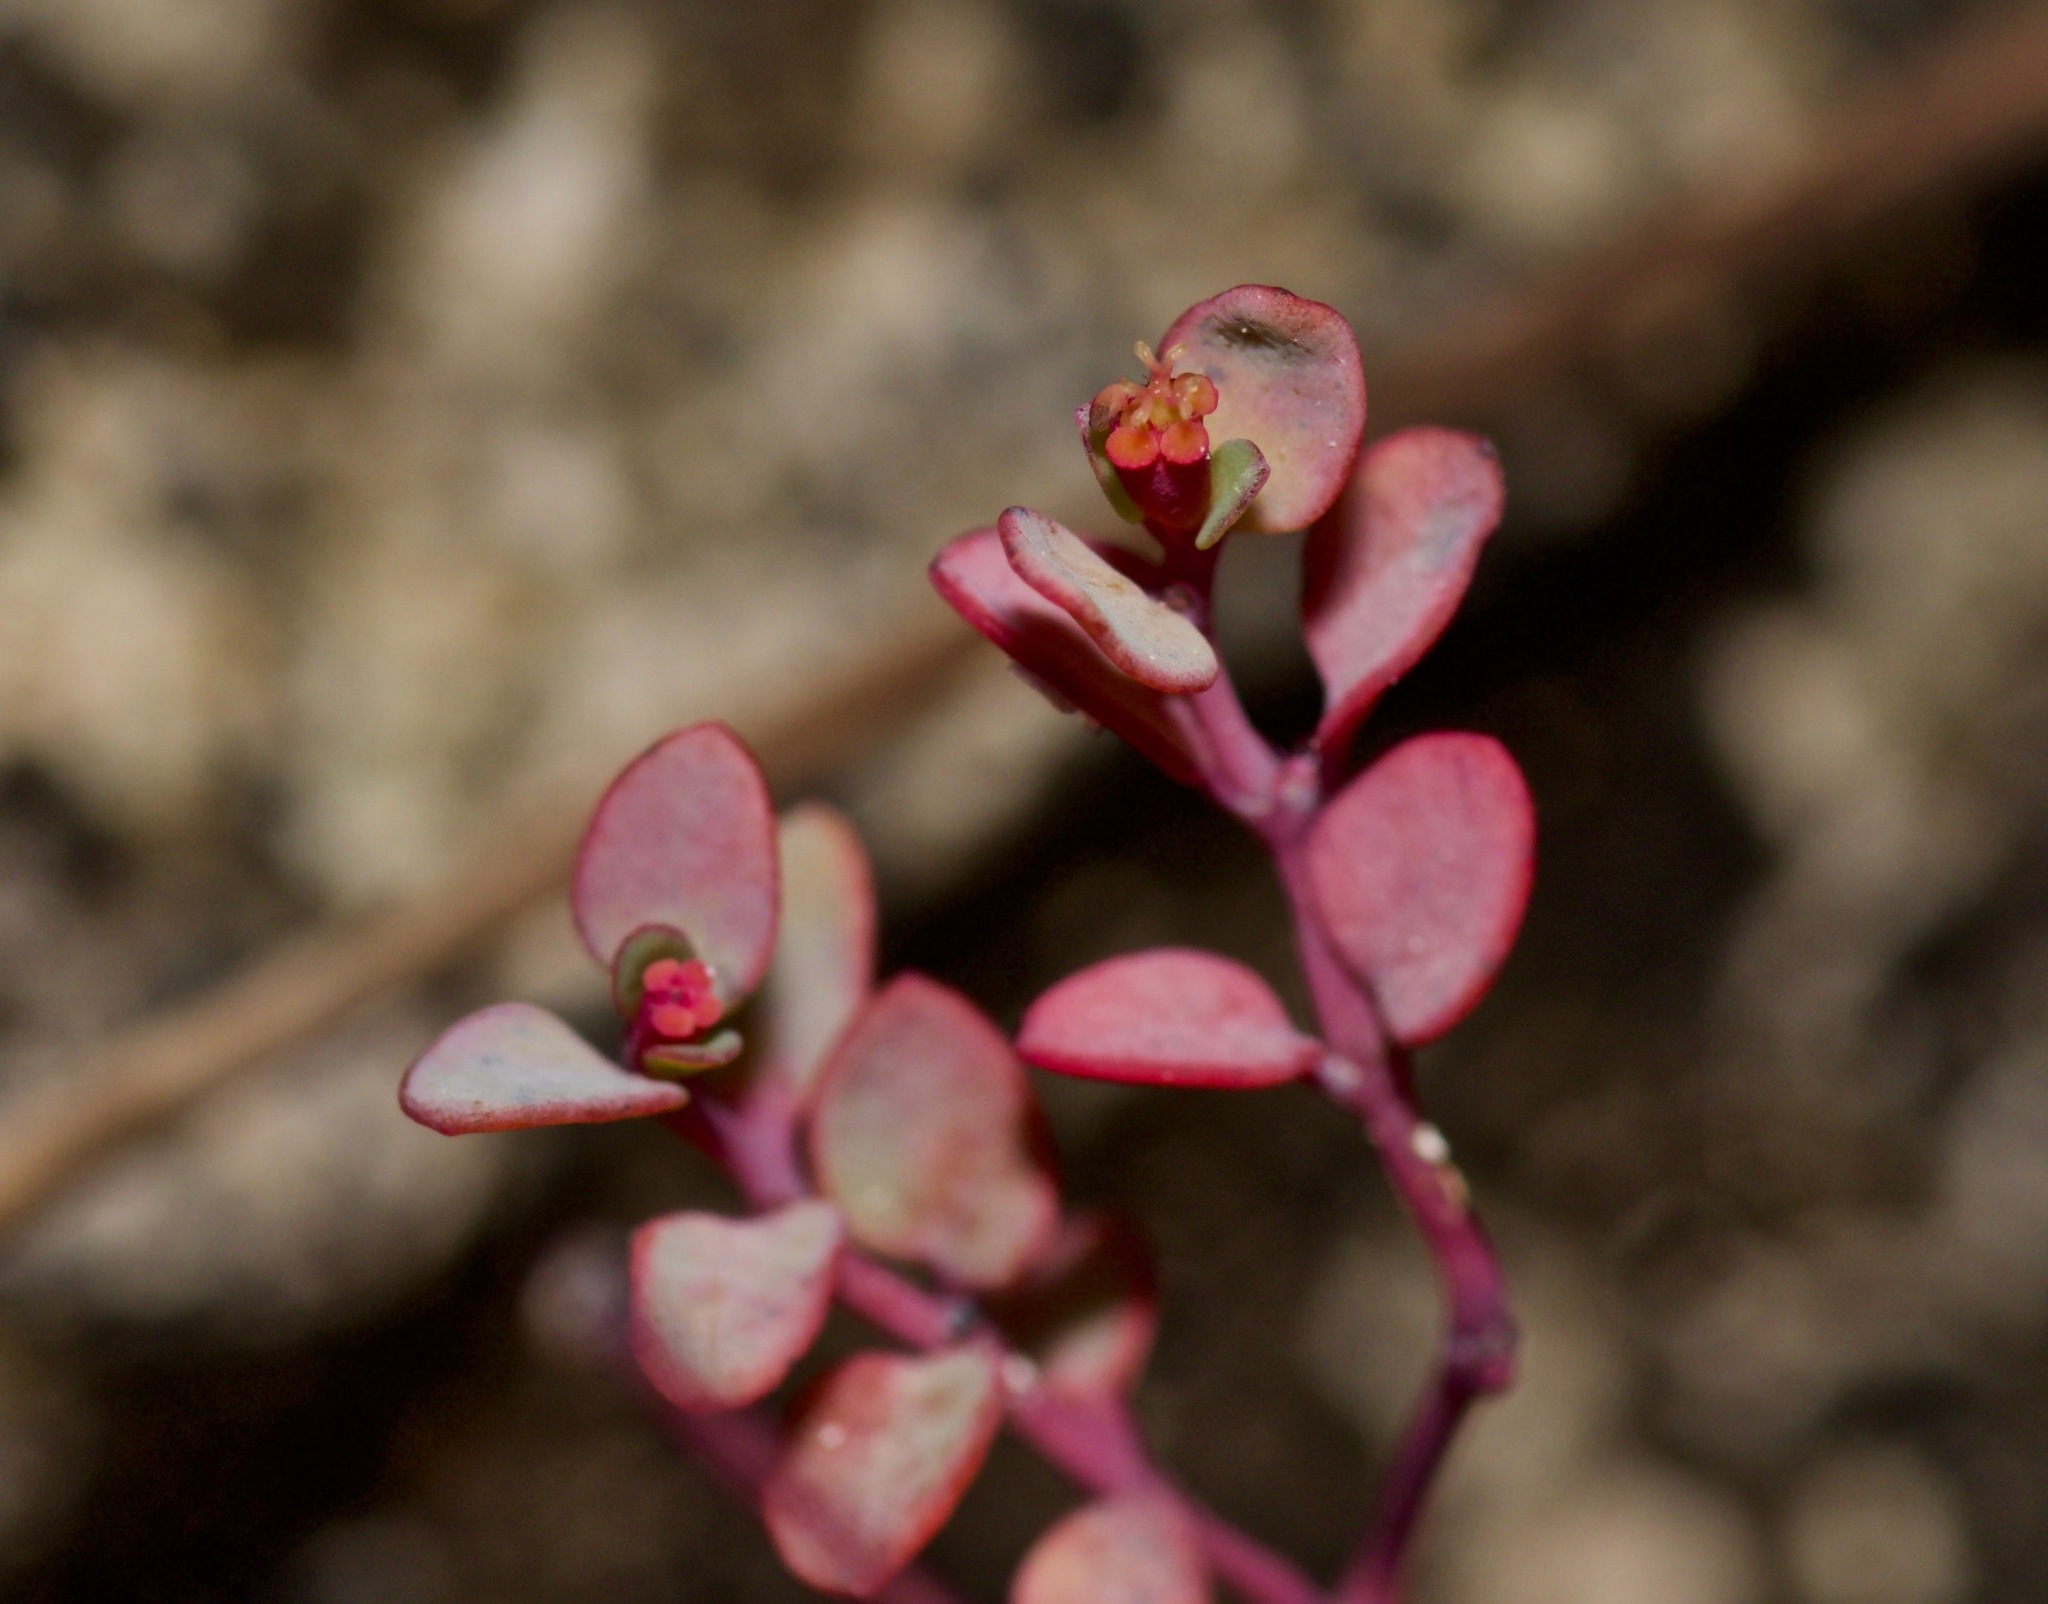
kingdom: Plantae
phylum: Tracheophyta
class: Magnoliopsida
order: Malpighiales
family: Euphorbiaceae
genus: Euphorbia
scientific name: Euphorbia fendleri
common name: Fendler's euphorbia
